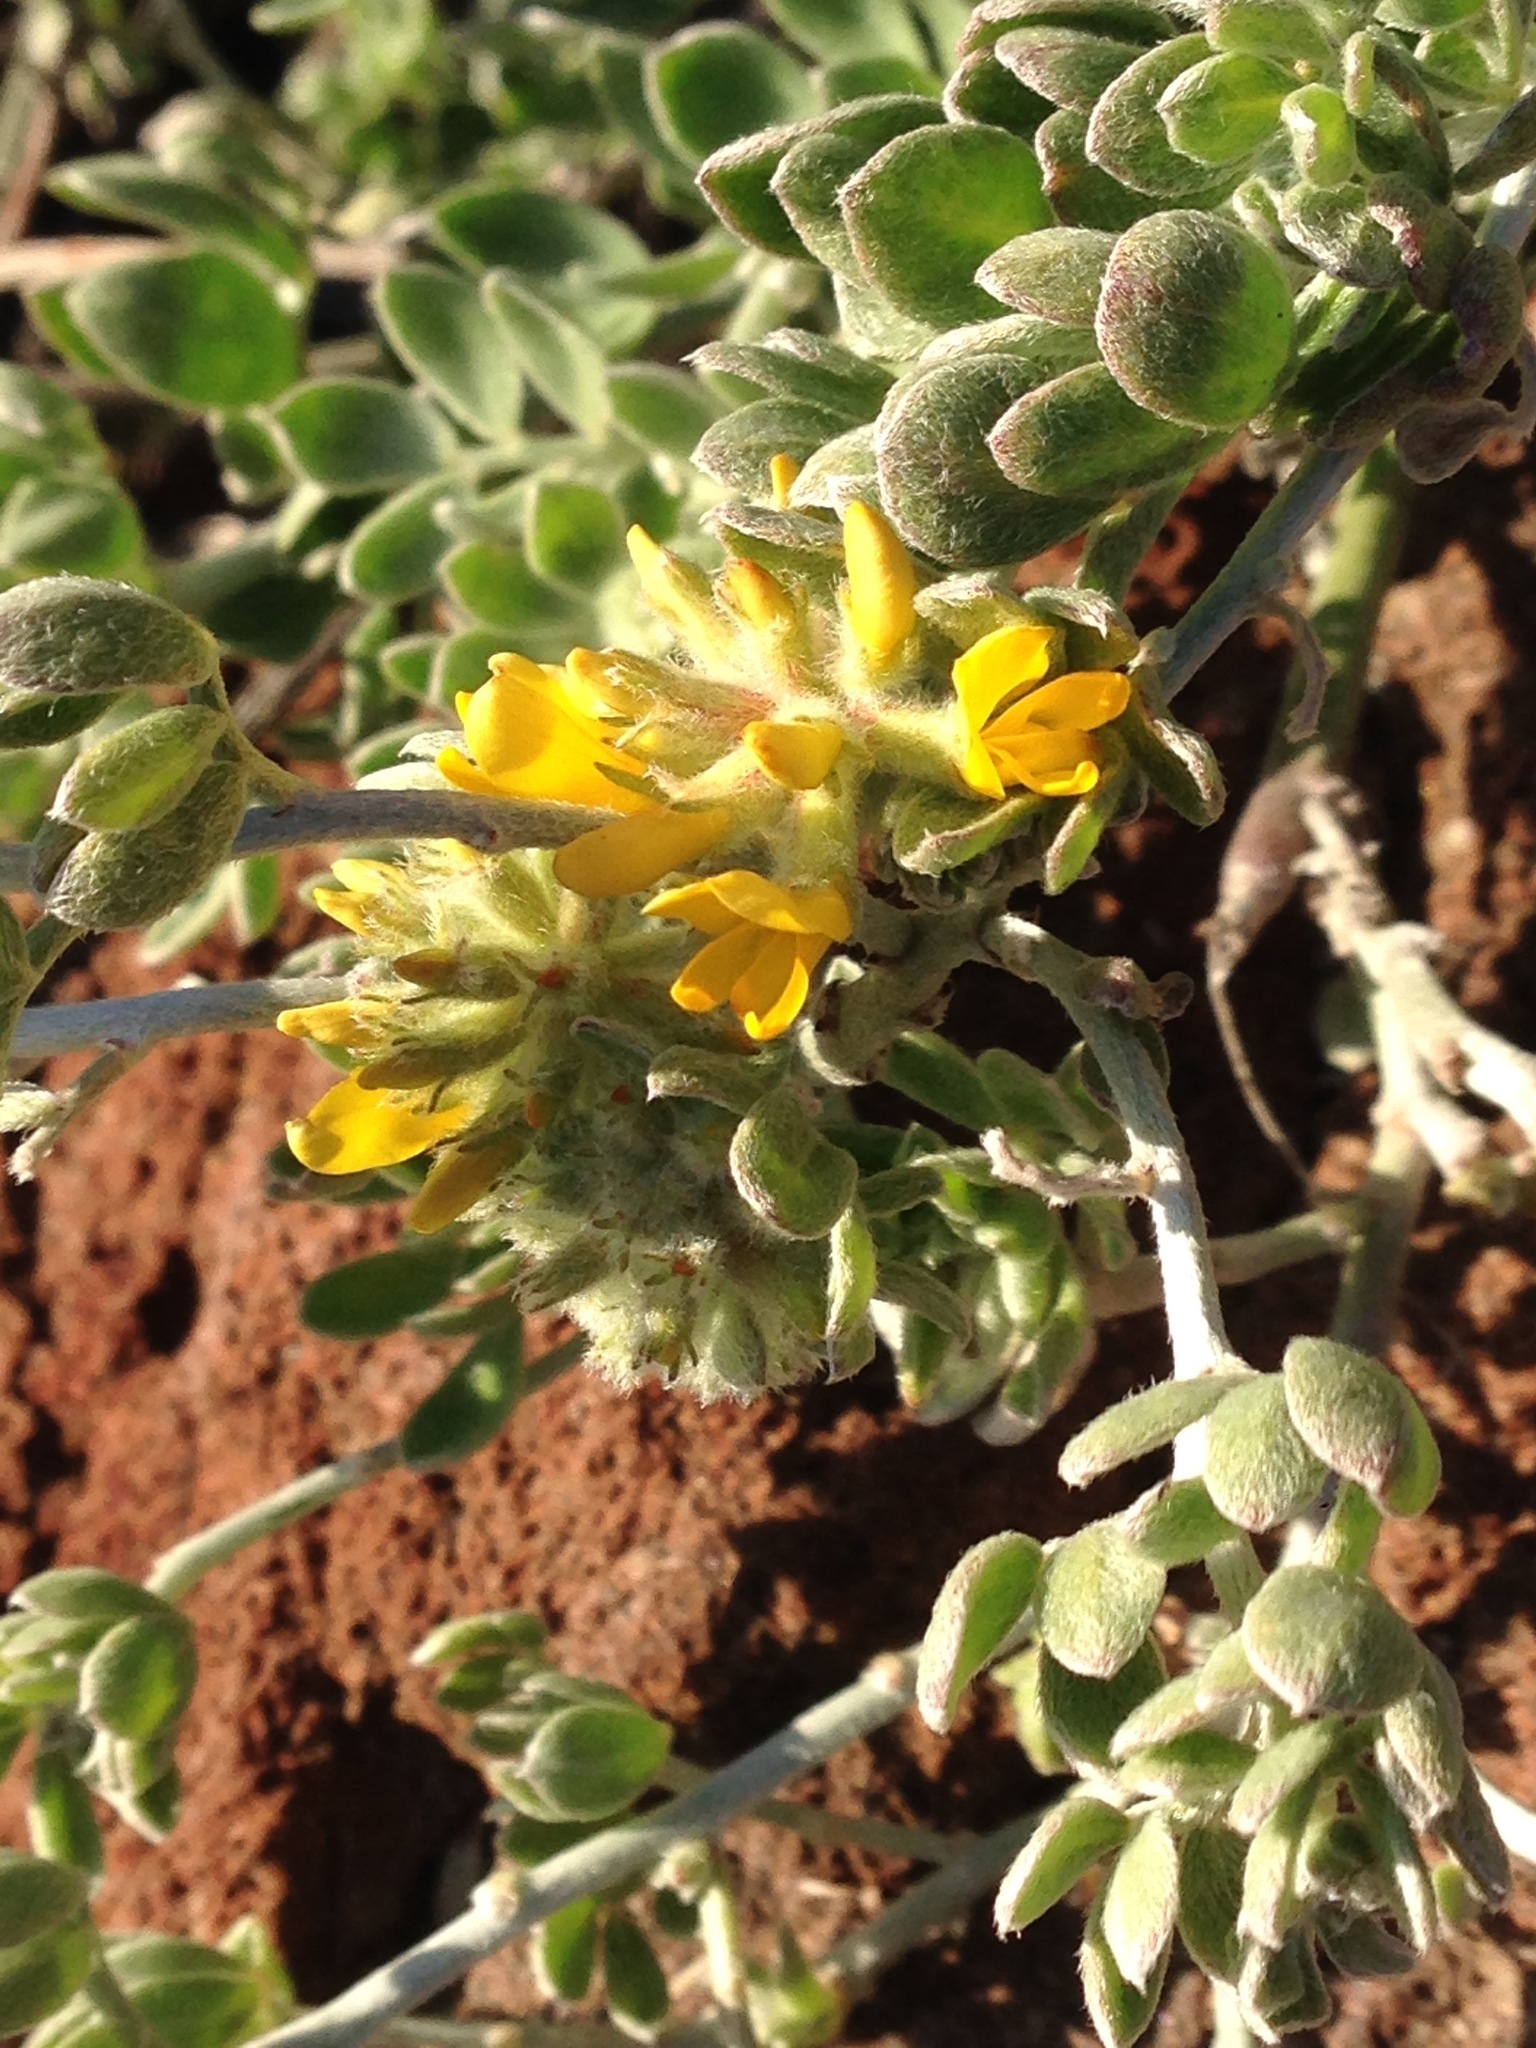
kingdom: Plantae
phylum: Tracheophyta
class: Magnoliopsida
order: Fabales
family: Fabaceae
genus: Acmispon
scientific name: Acmispon argophyllus
